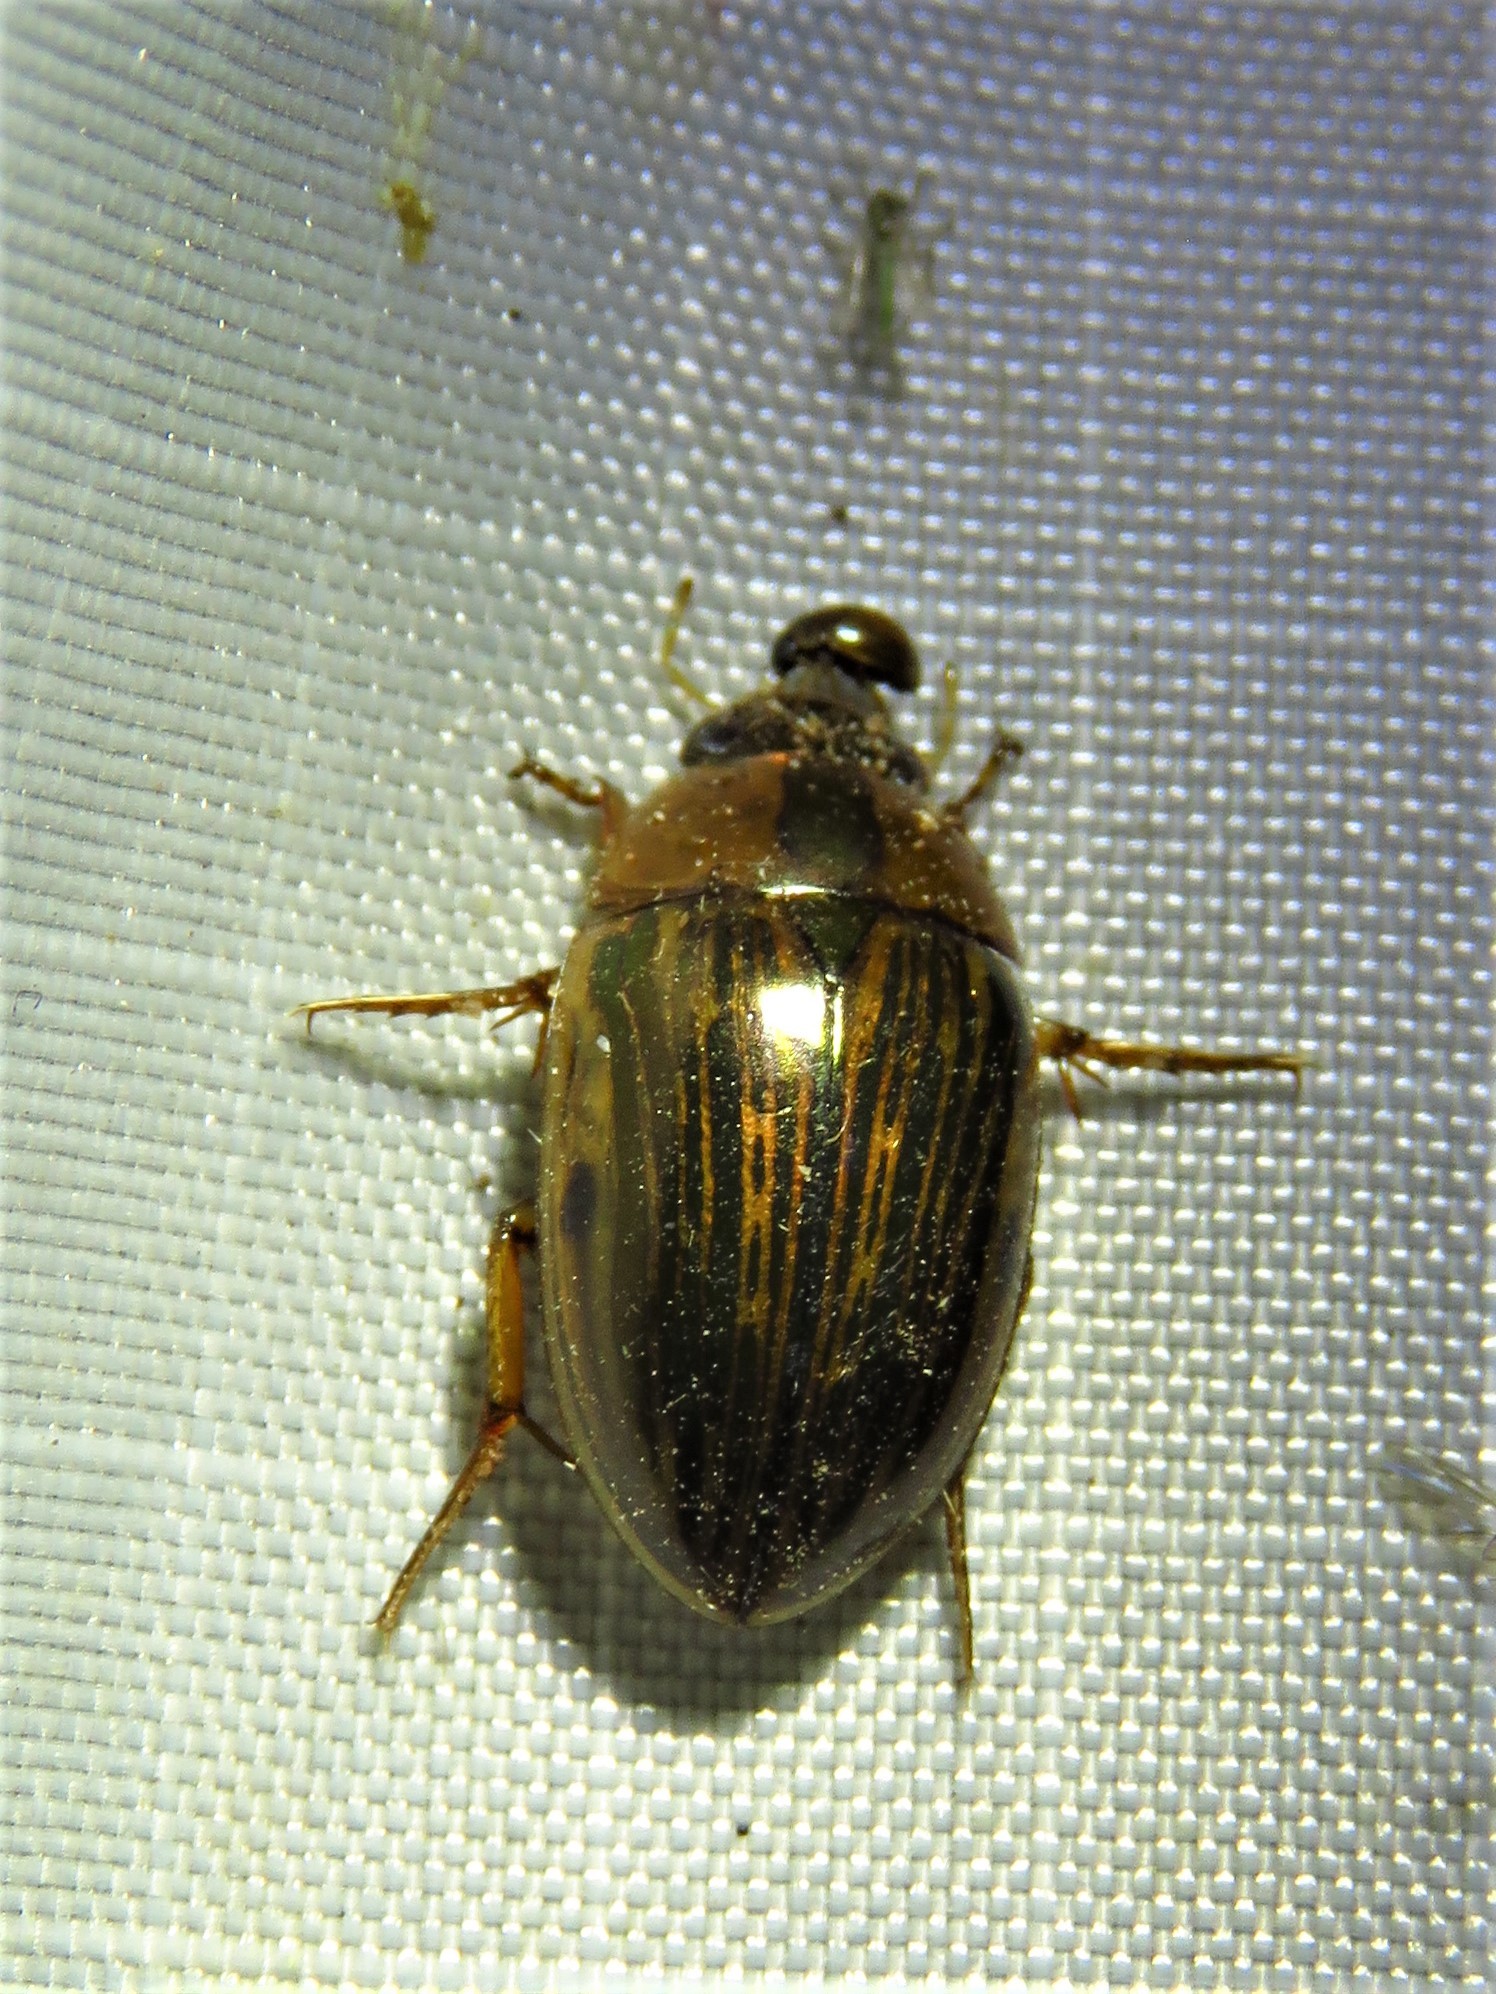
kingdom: Animalia
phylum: Arthropoda
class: Insecta
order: Coleoptera
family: Hydrophilidae
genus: Tropisternus
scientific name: Tropisternus collaris
